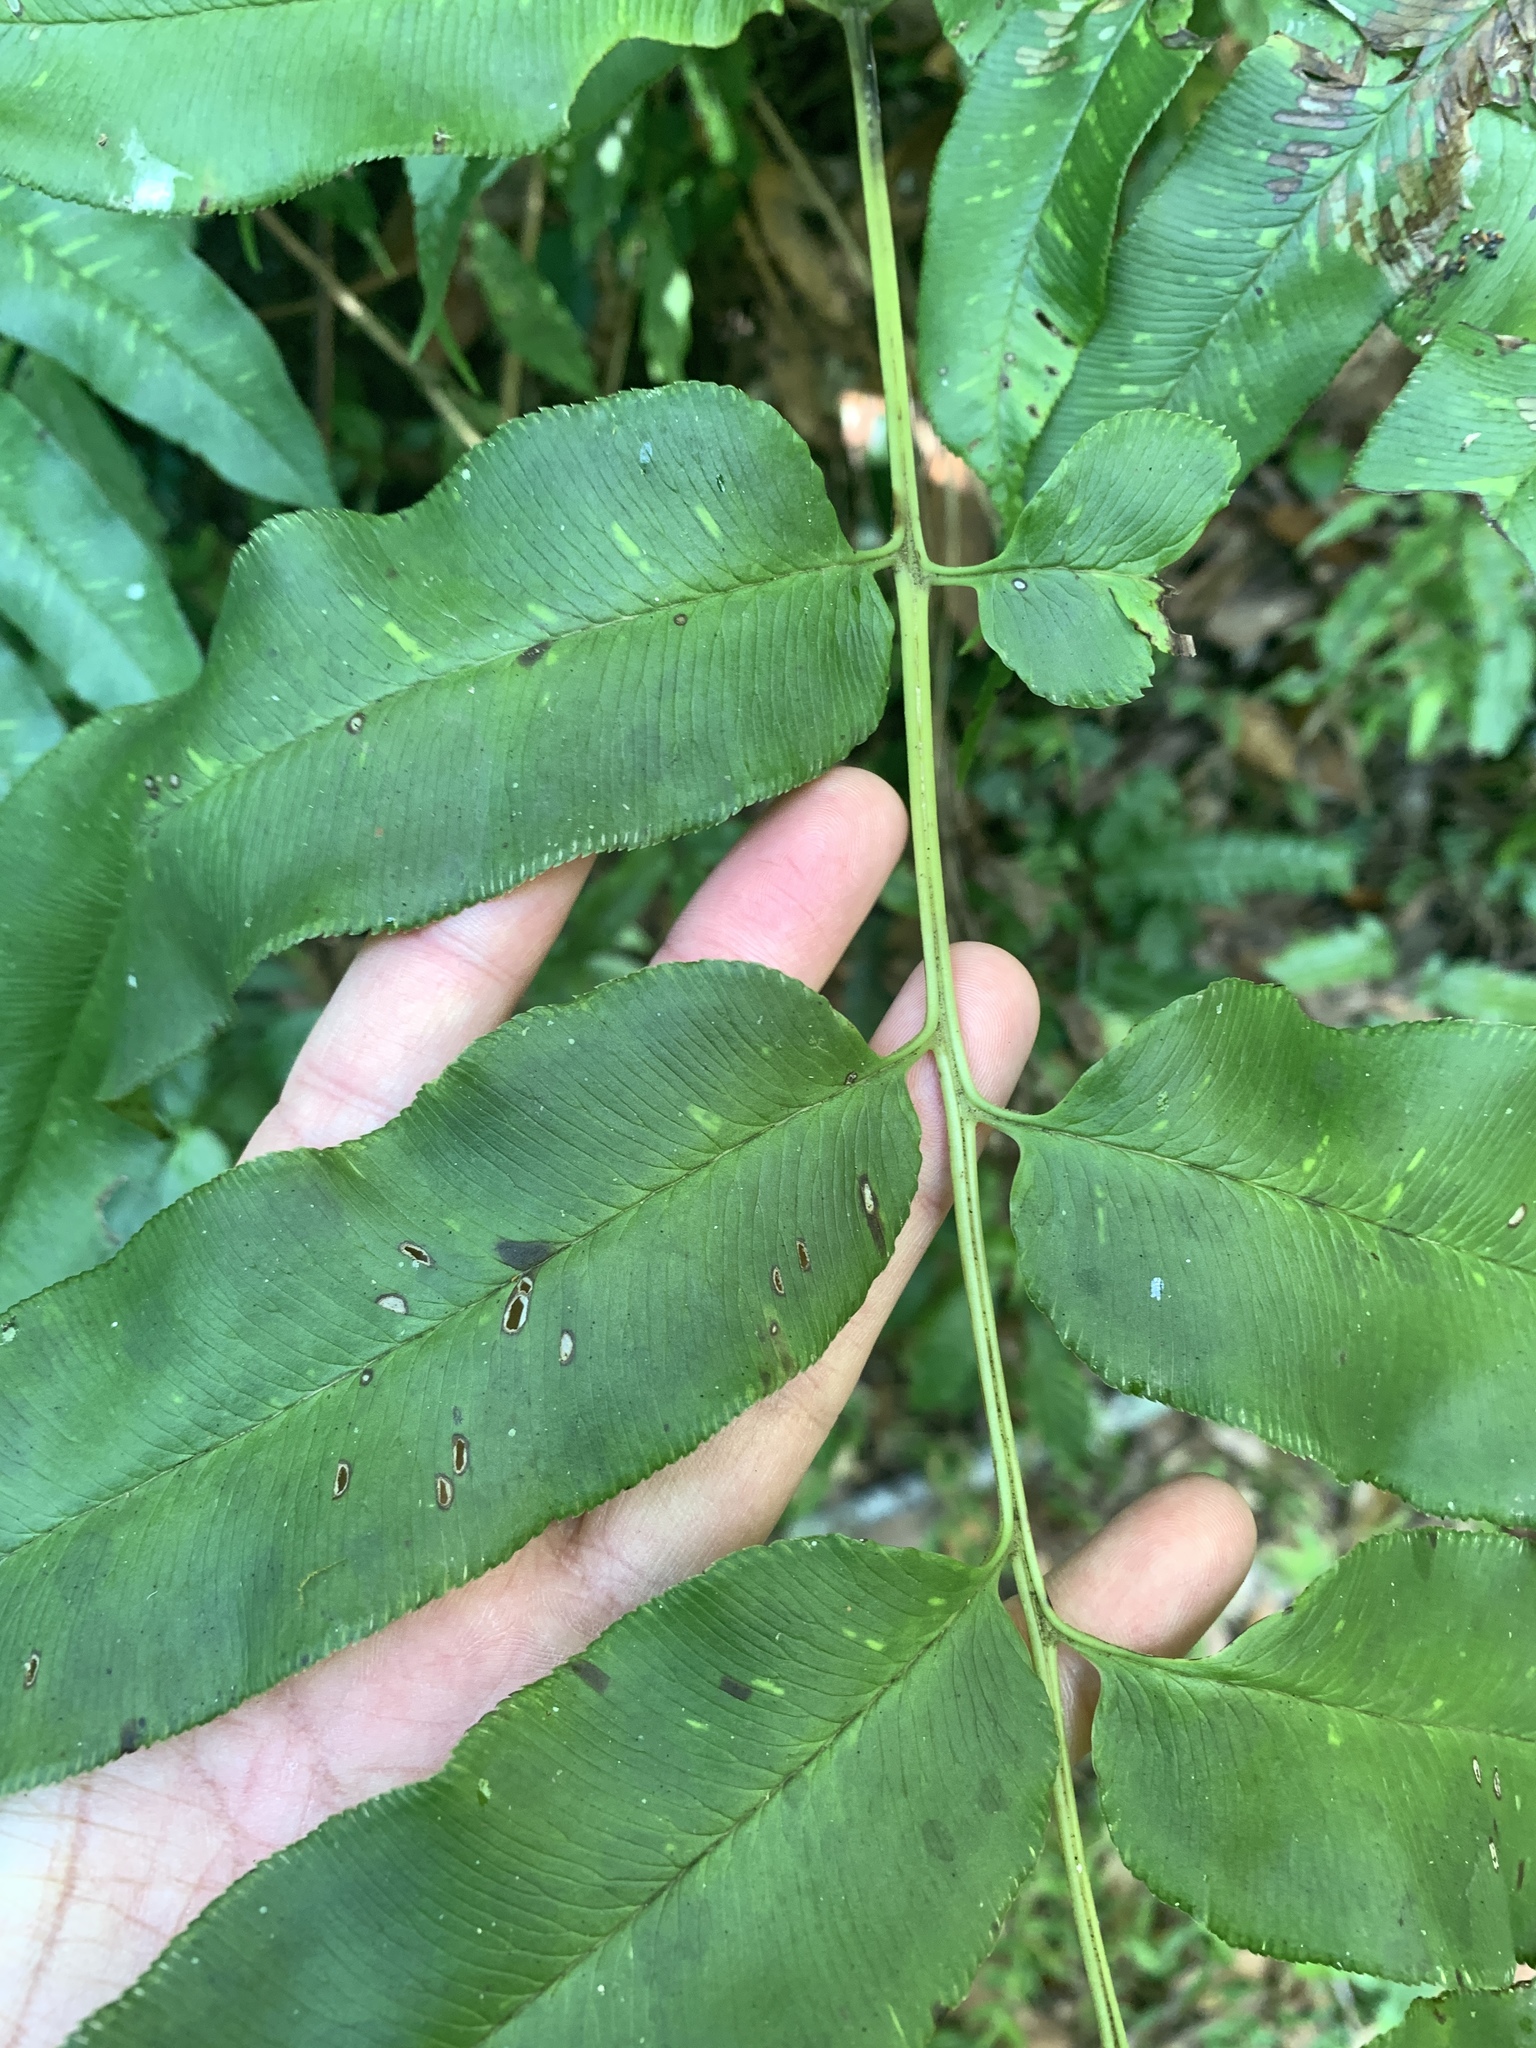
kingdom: Plantae
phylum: Tracheophyta
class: Polypodiopsida
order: Polypodiales
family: Pteridaceae
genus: Coniogramme
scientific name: Coniogramme intermedia
